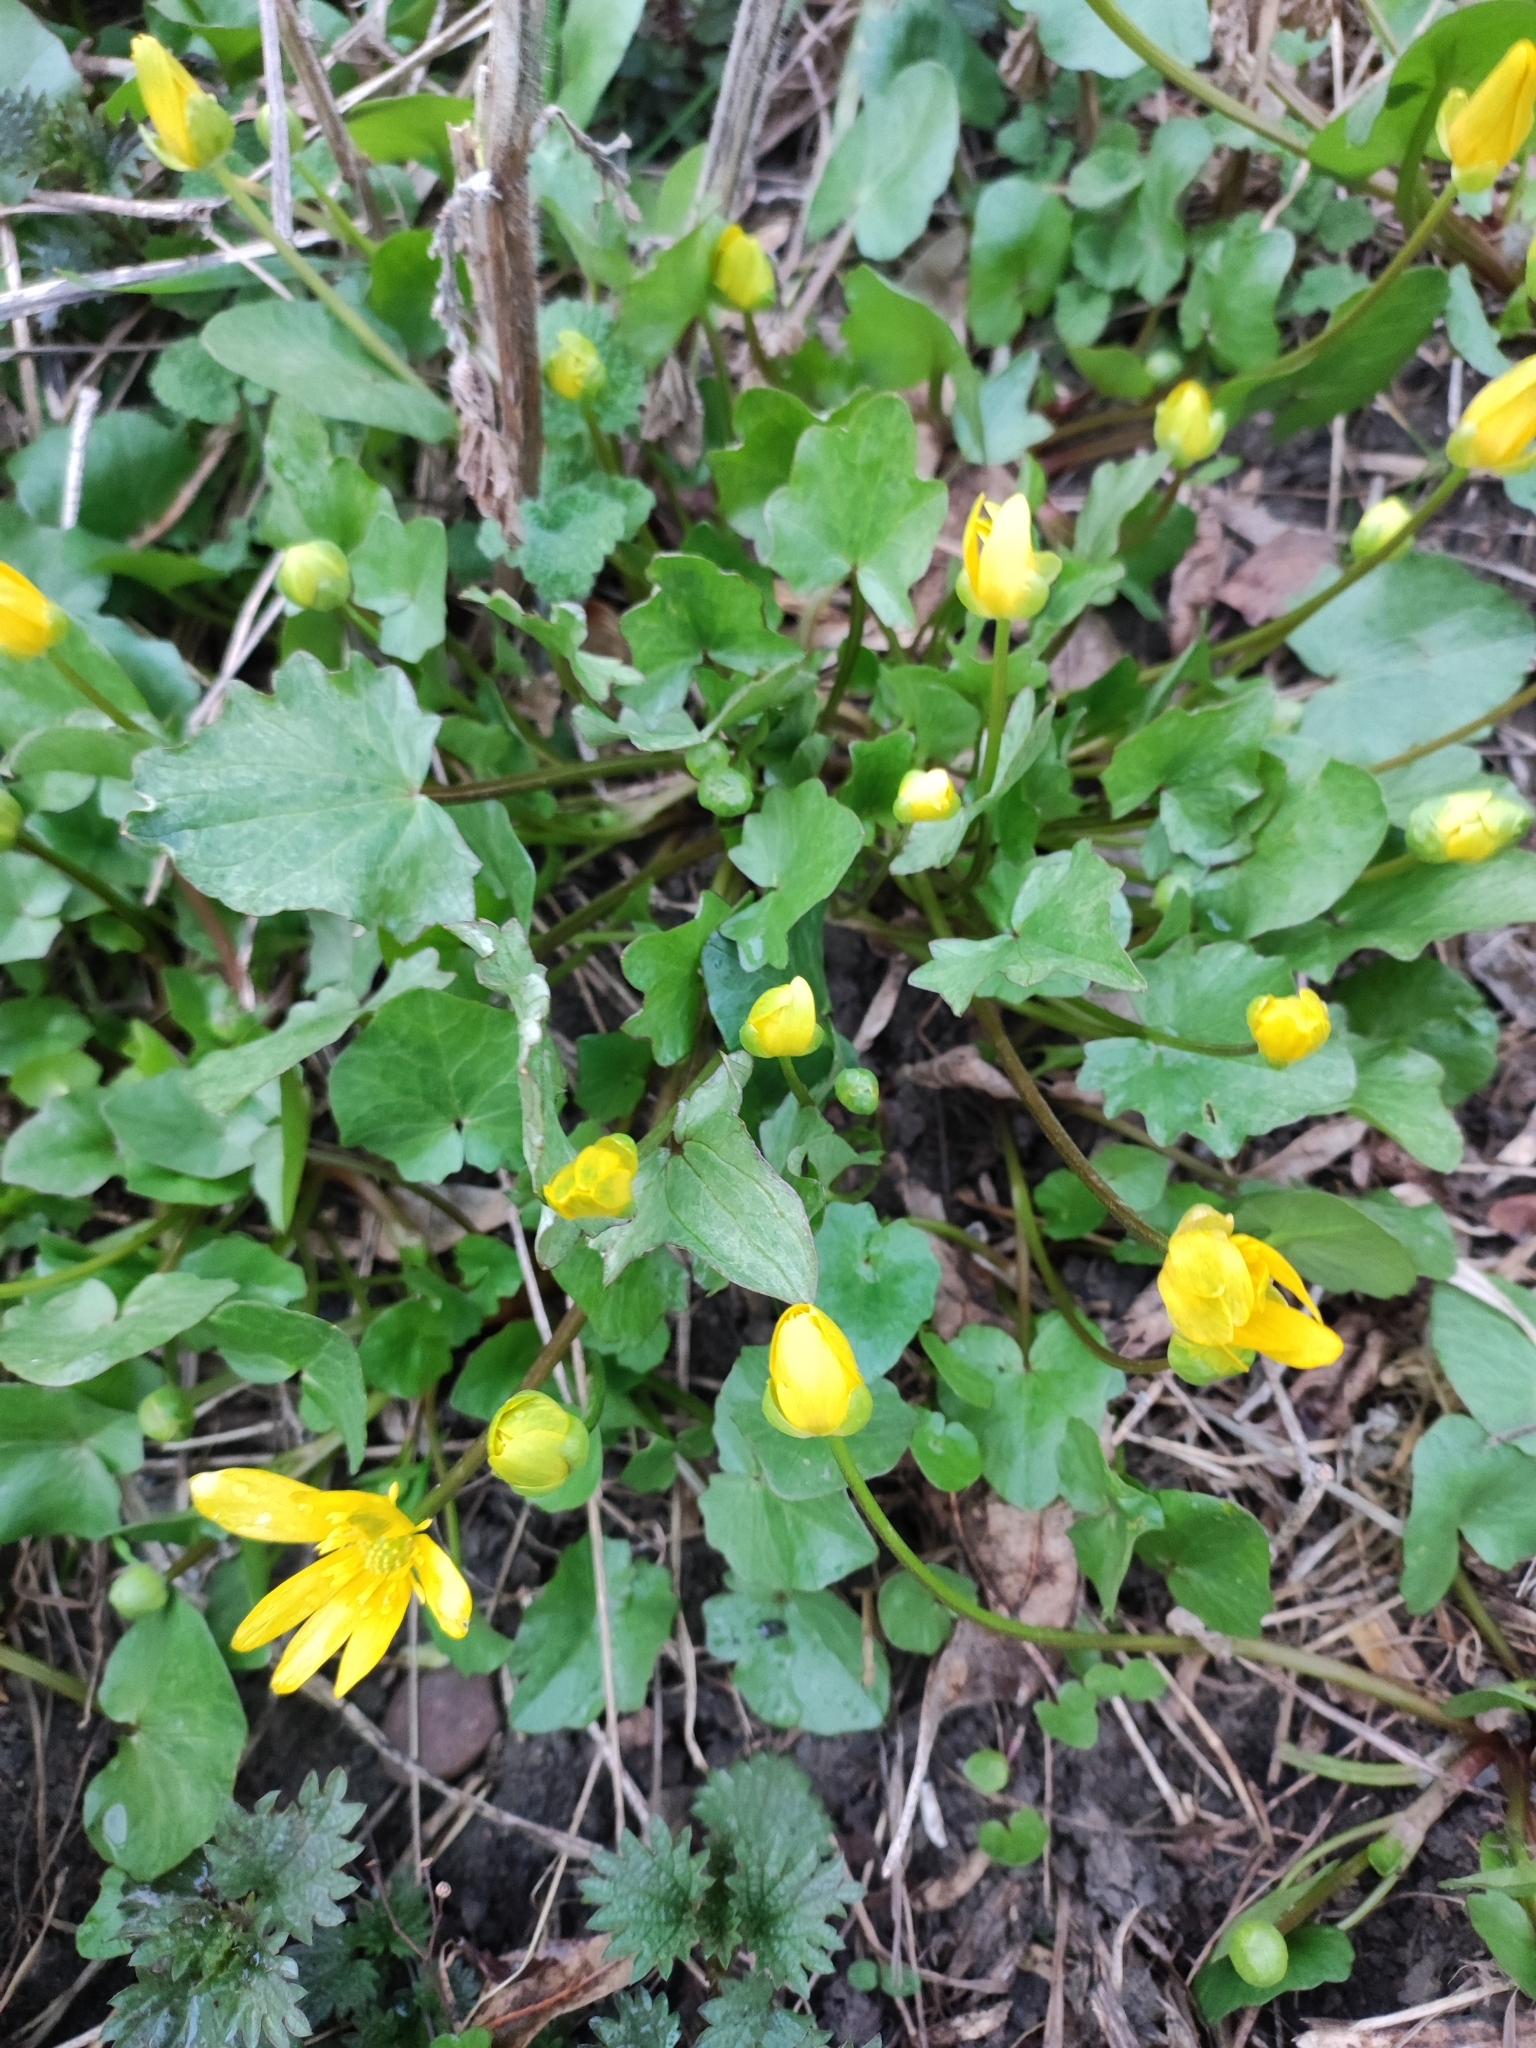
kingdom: Plantae
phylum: Tracheophyta
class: Magnoliopsida
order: Ranunculales
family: Ranunculaceae
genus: Ficaria
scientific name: Ficaria verna
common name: Lesser celandine
